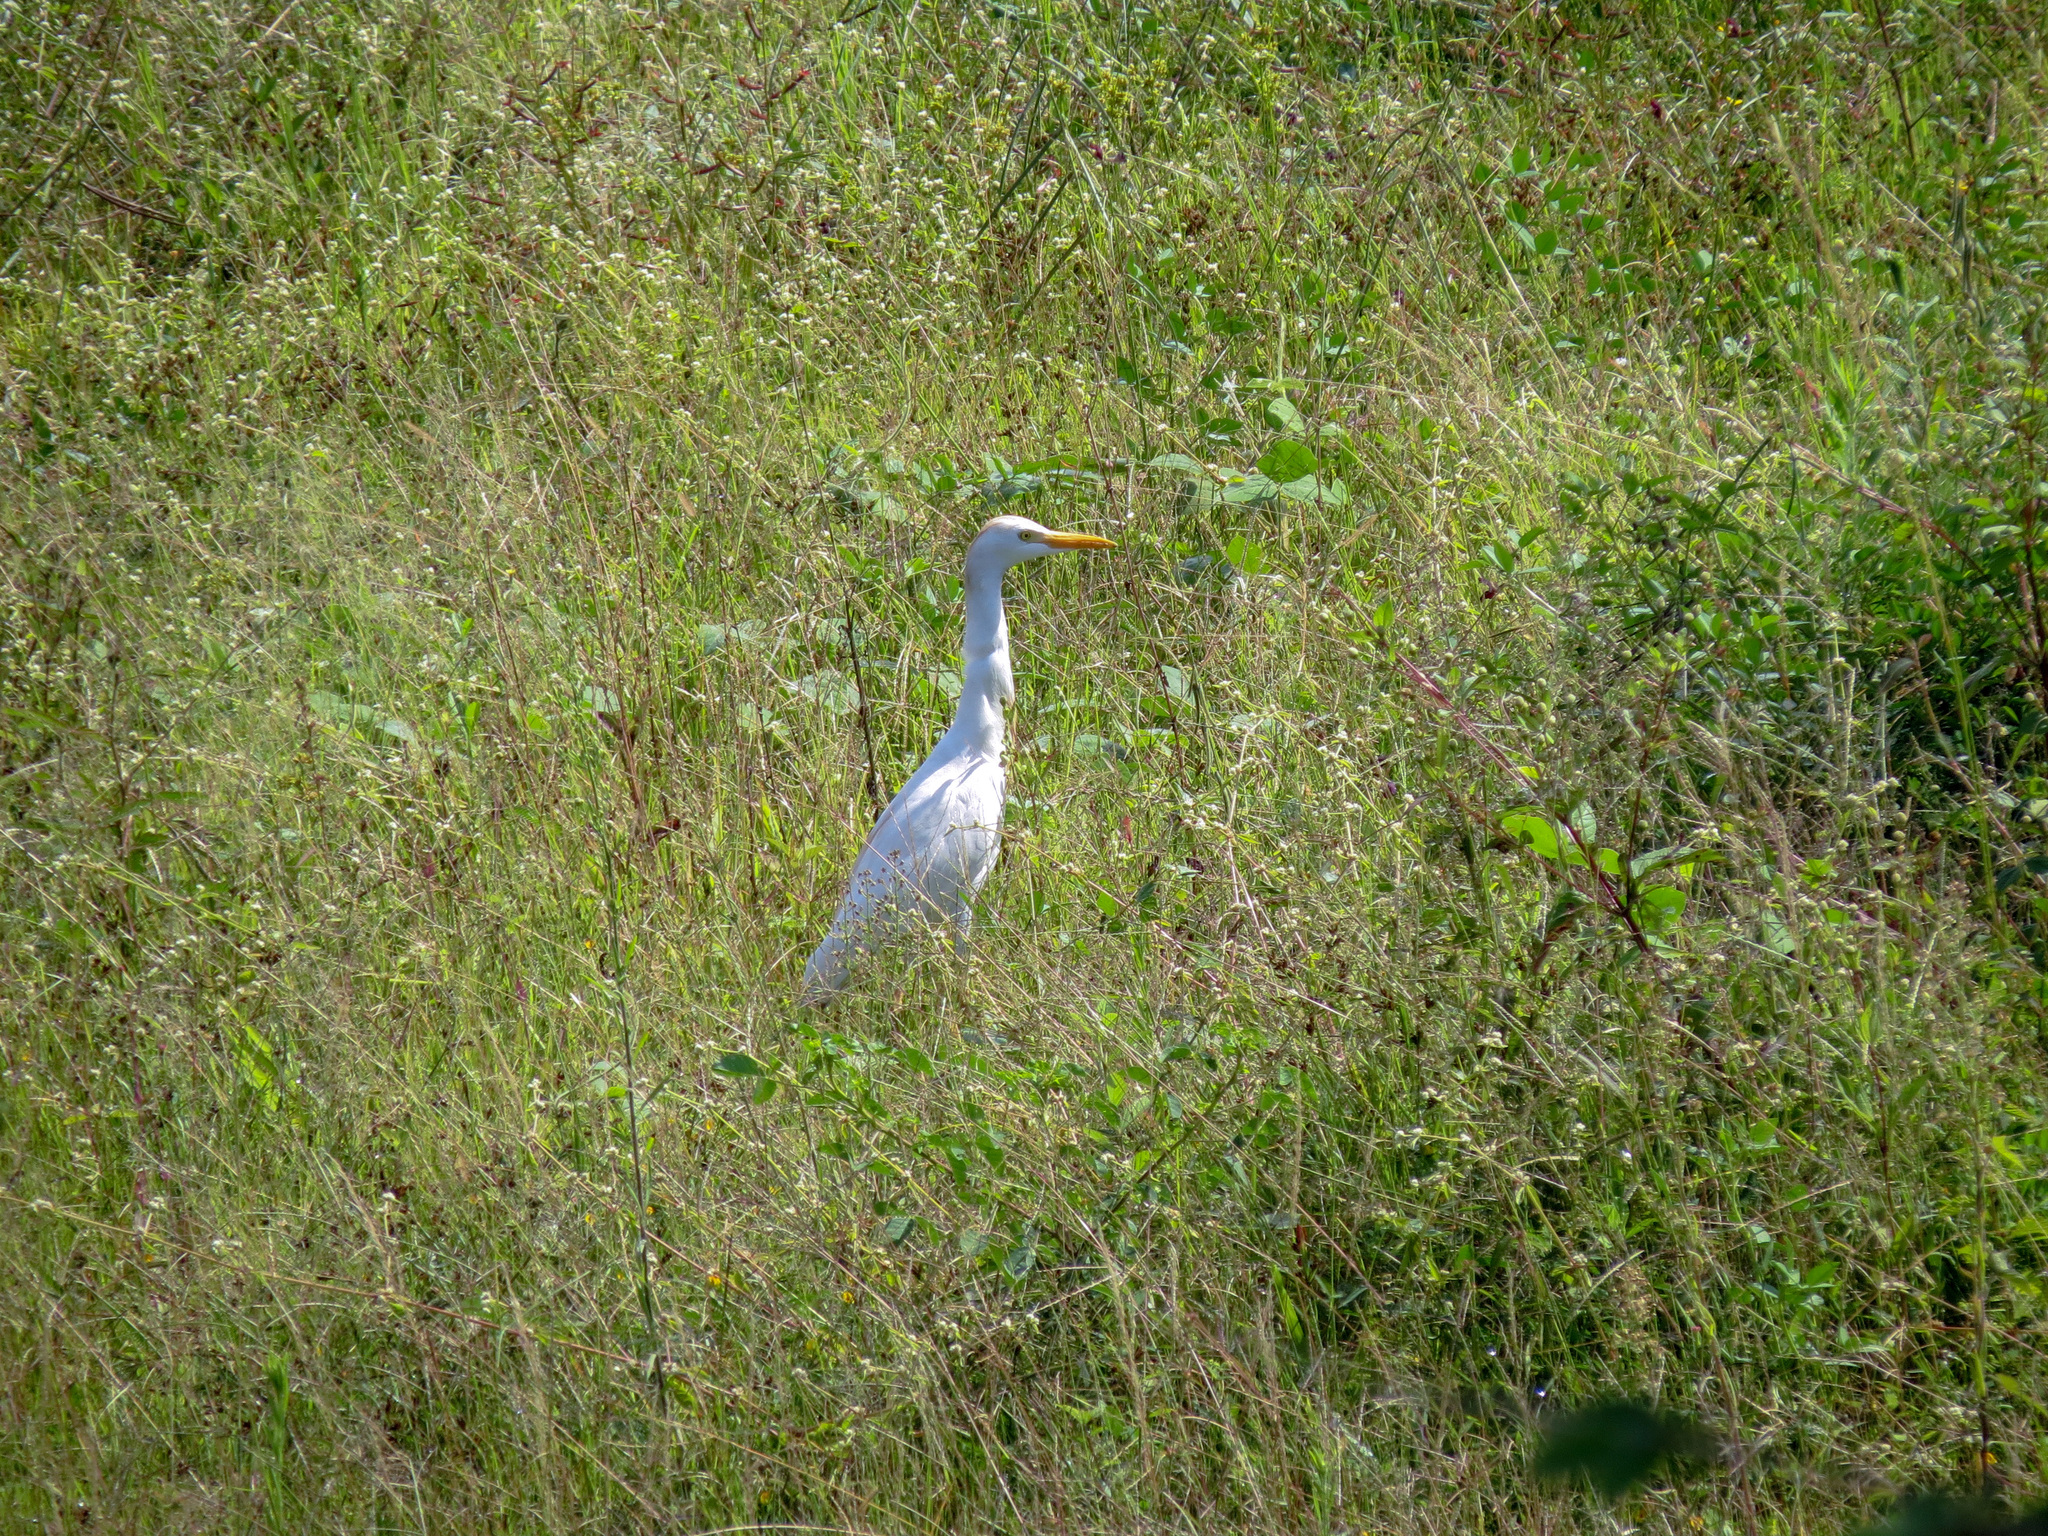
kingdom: Animalia
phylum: Chordata
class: Aves
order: Pelecaniformes
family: Ardeidae
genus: Bubulcus
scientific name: Bubulcus ibis
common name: Cattle egret
